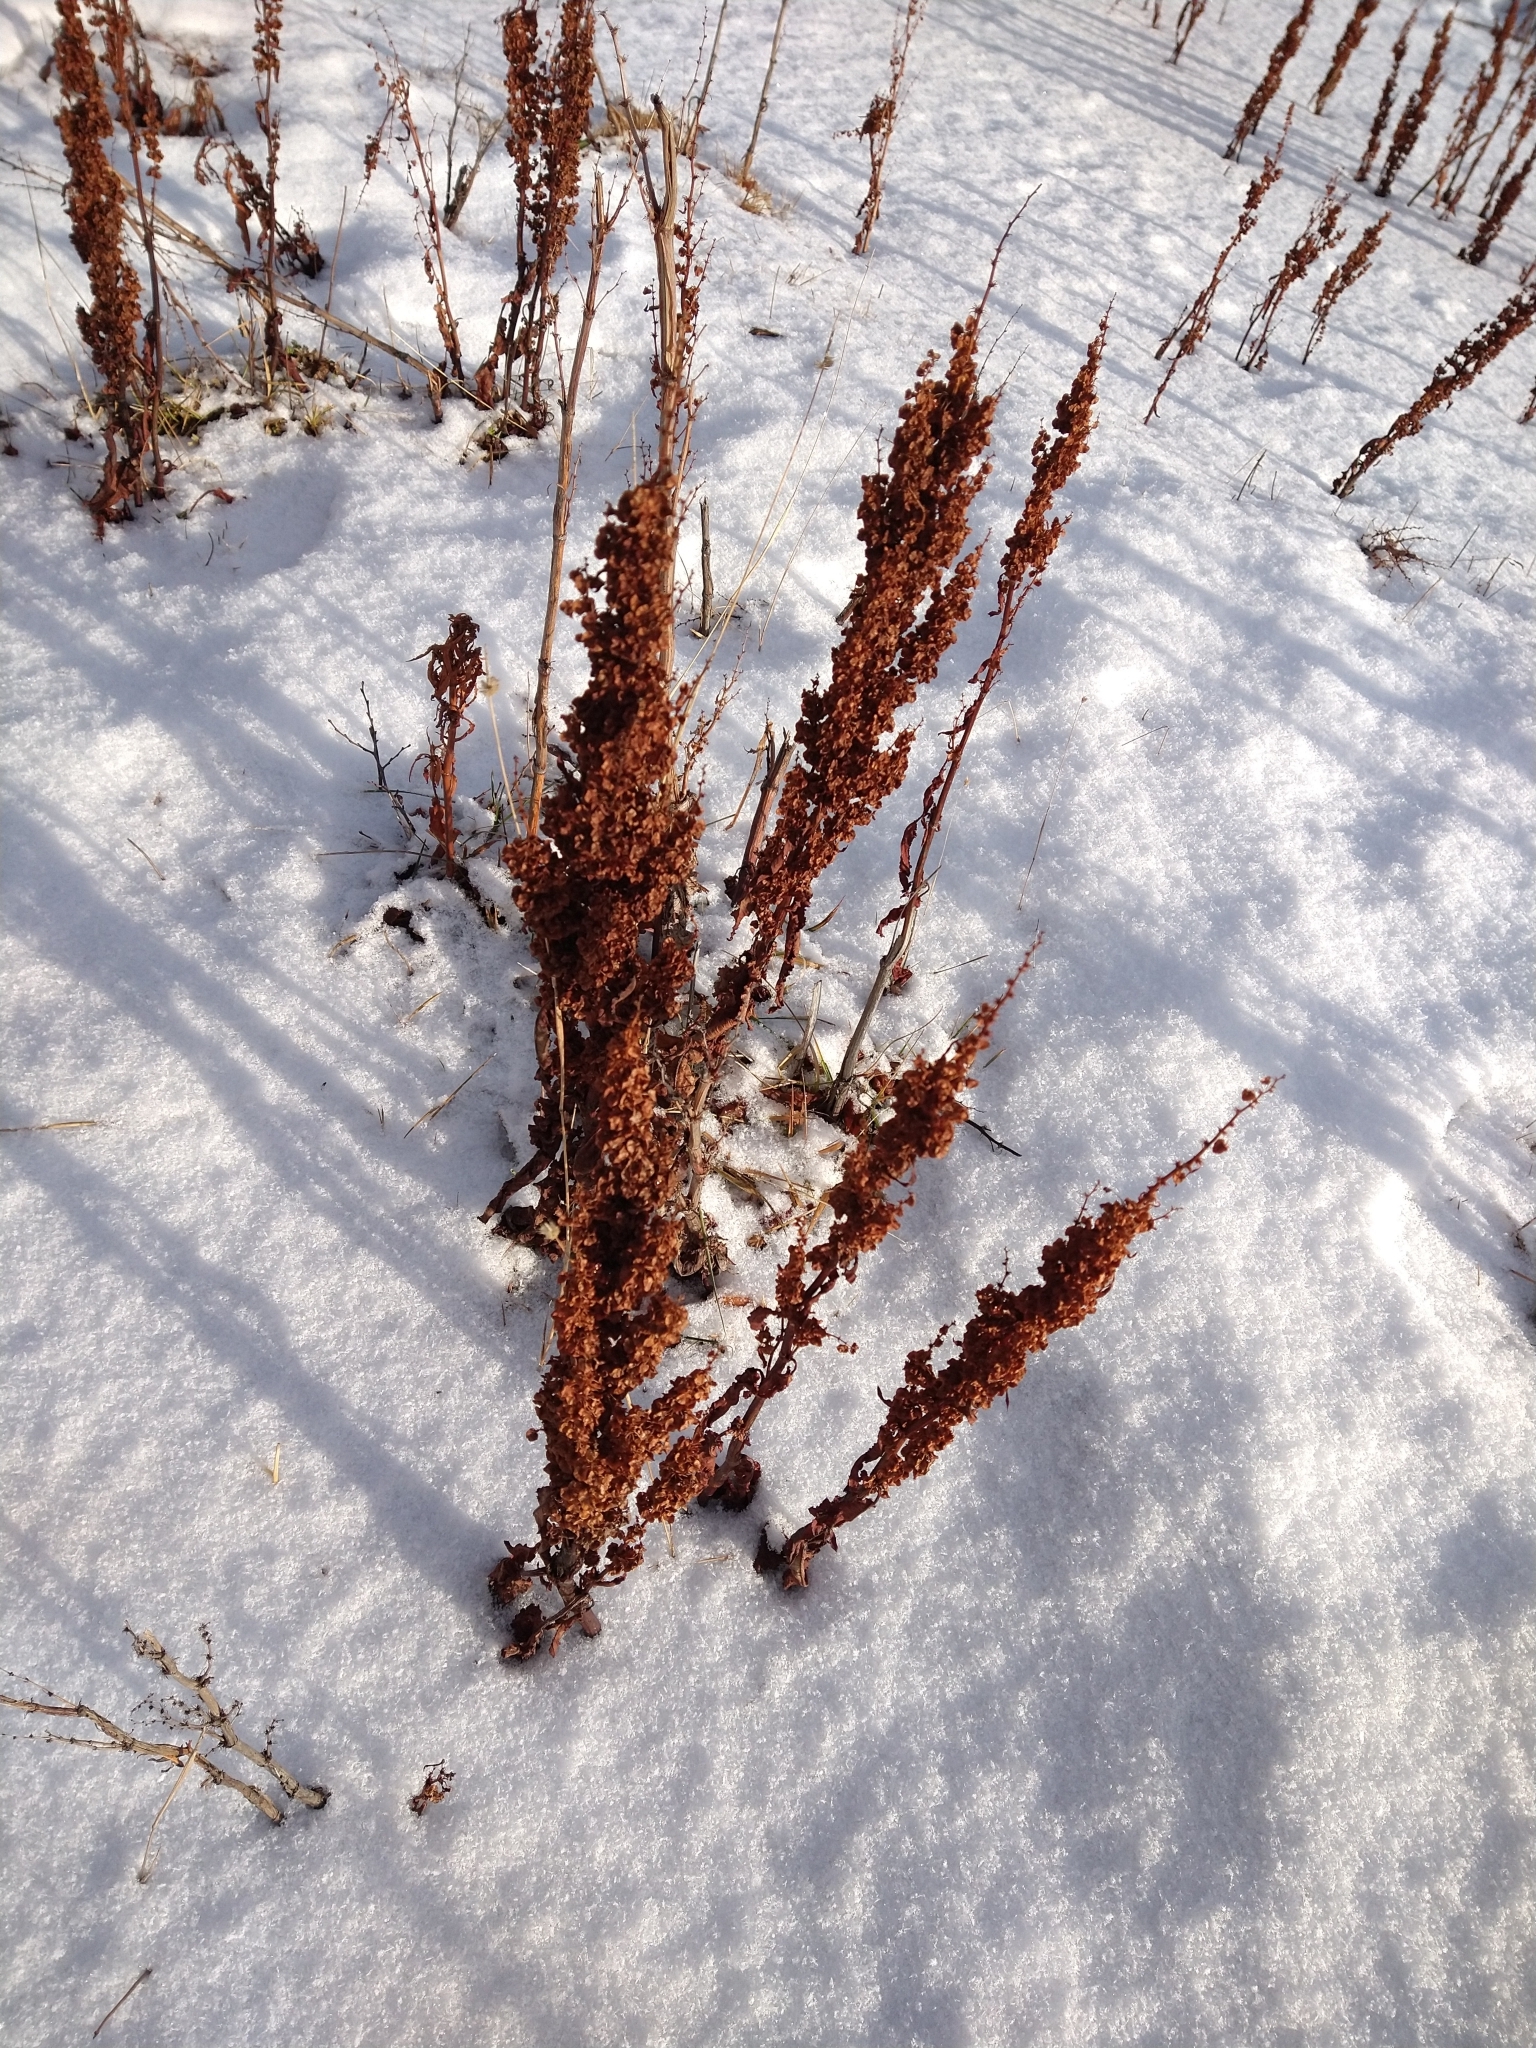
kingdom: Plantae
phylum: Tracheophyta
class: Magnoliopsida
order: Caryophyllales
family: Polygonaceae
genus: Rumex
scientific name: Rumex crispus
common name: Curled dock
